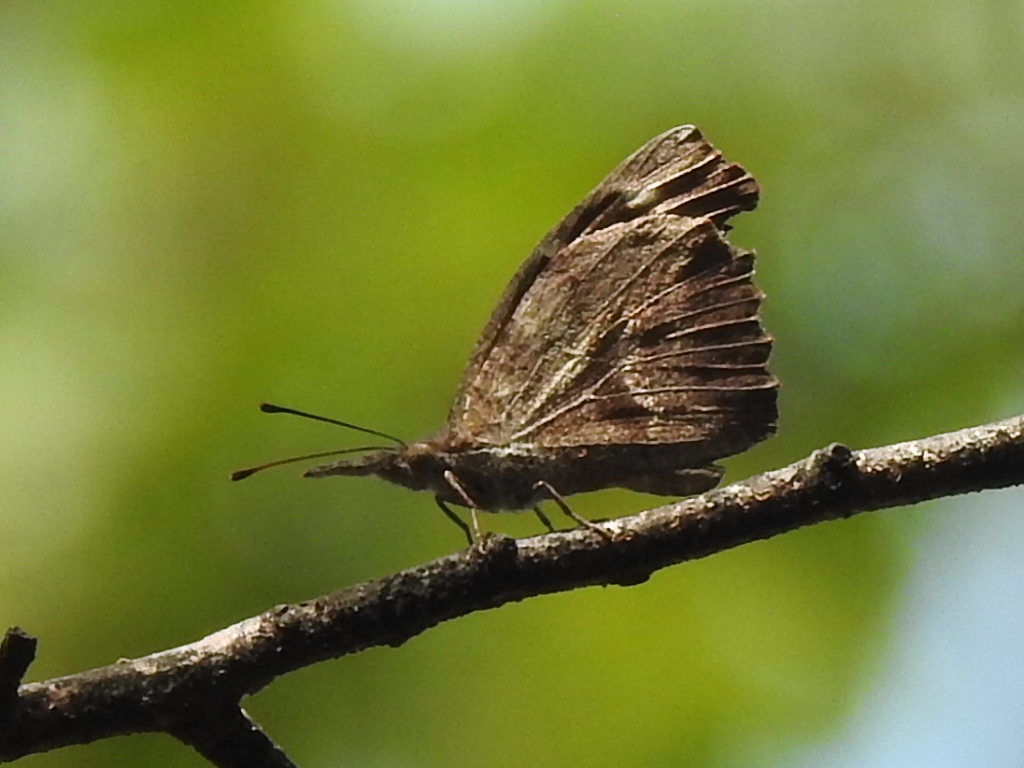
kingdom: Animalia
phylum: Arthropoda
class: Insecta
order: Lepidoptera
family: Nymphalidae
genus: Libytheana
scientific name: Libytheana carinenta
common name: American snout
